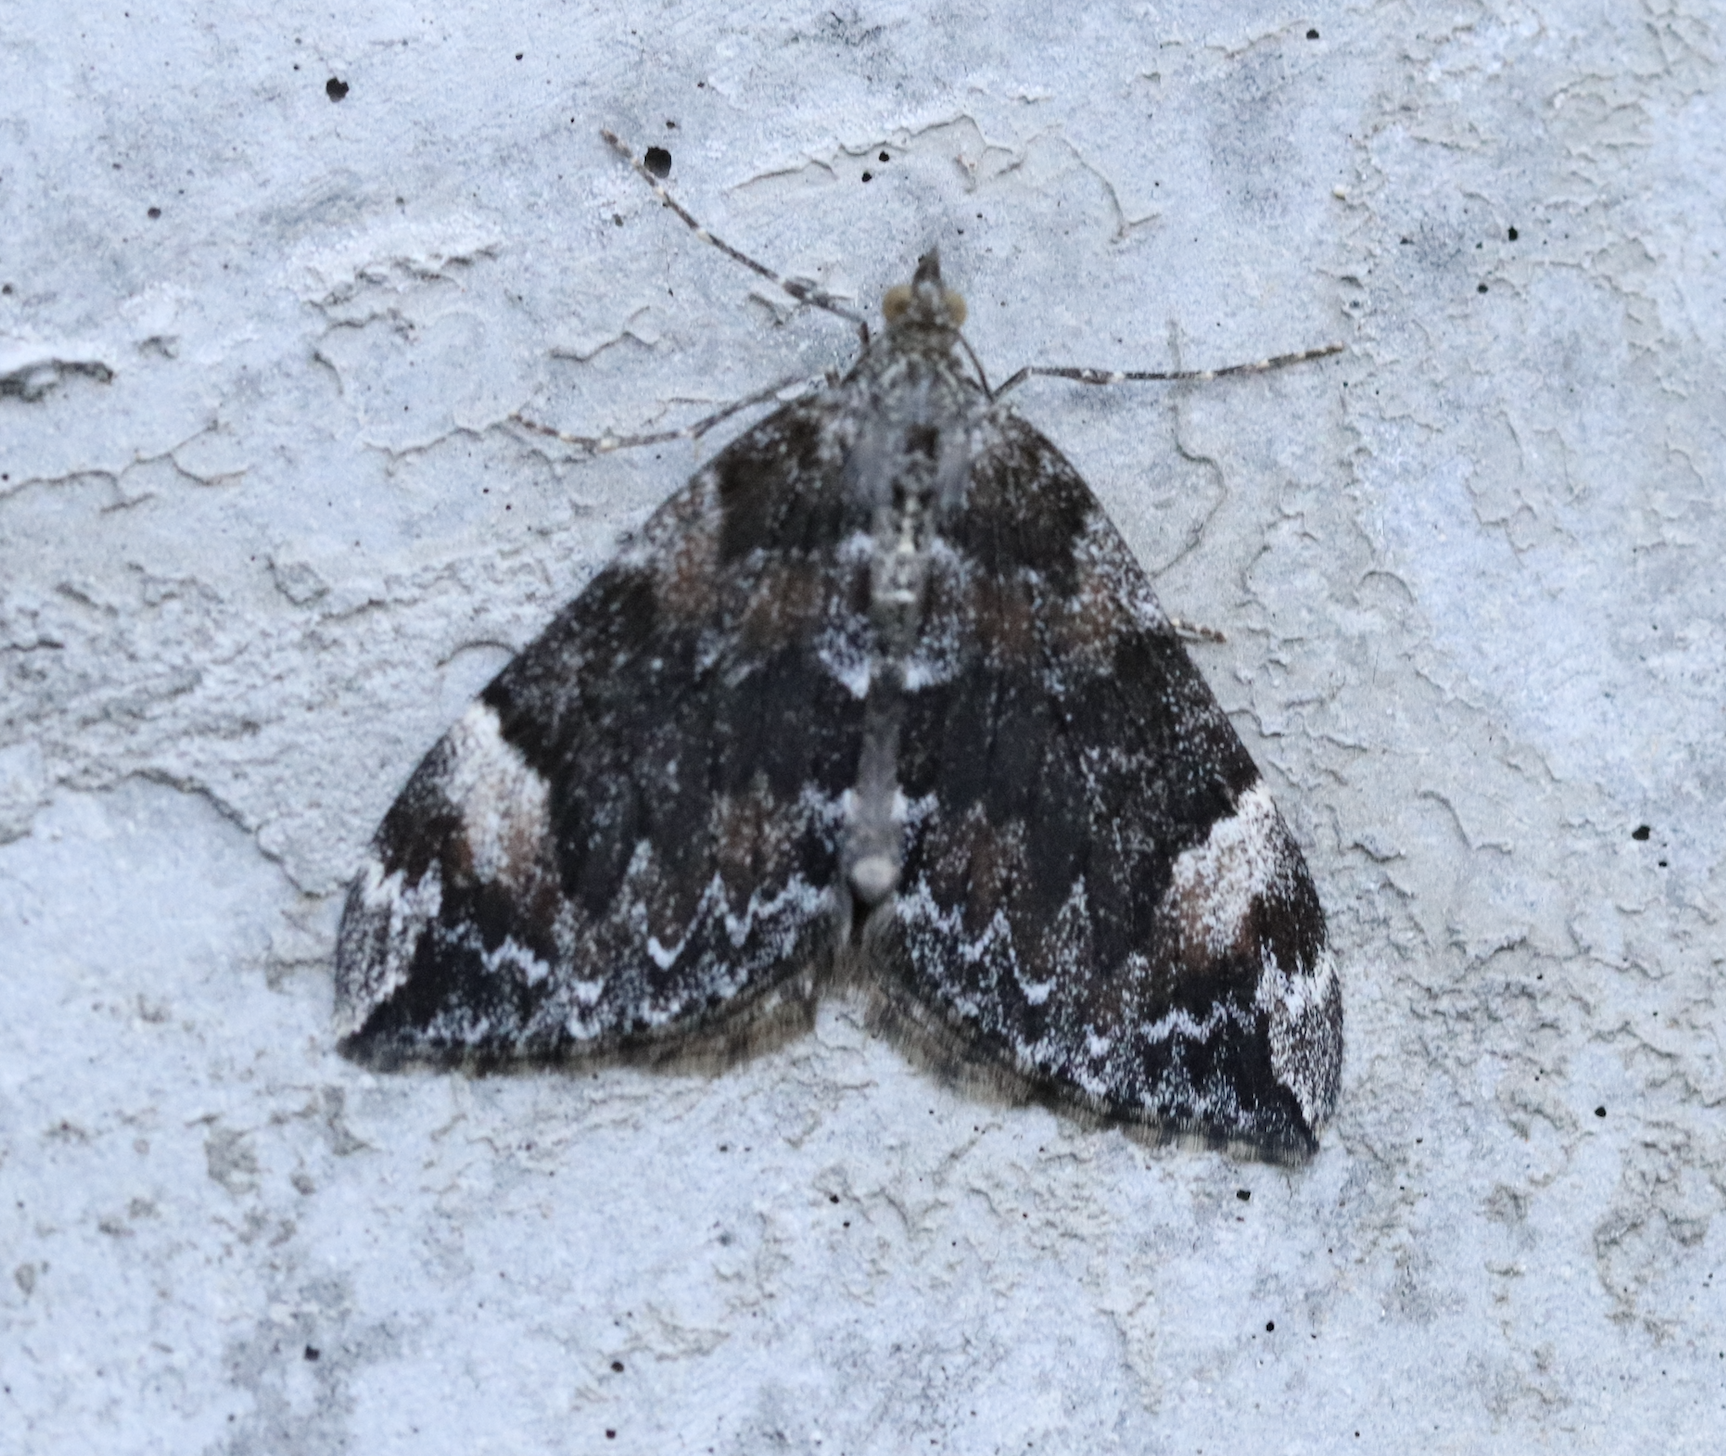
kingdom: Animalia
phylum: Arthropoda
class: Insecta
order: Lepidoptera
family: Geometridae
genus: Dysstroma
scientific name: Dysstroma citrata
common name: Dark marbled carpet
